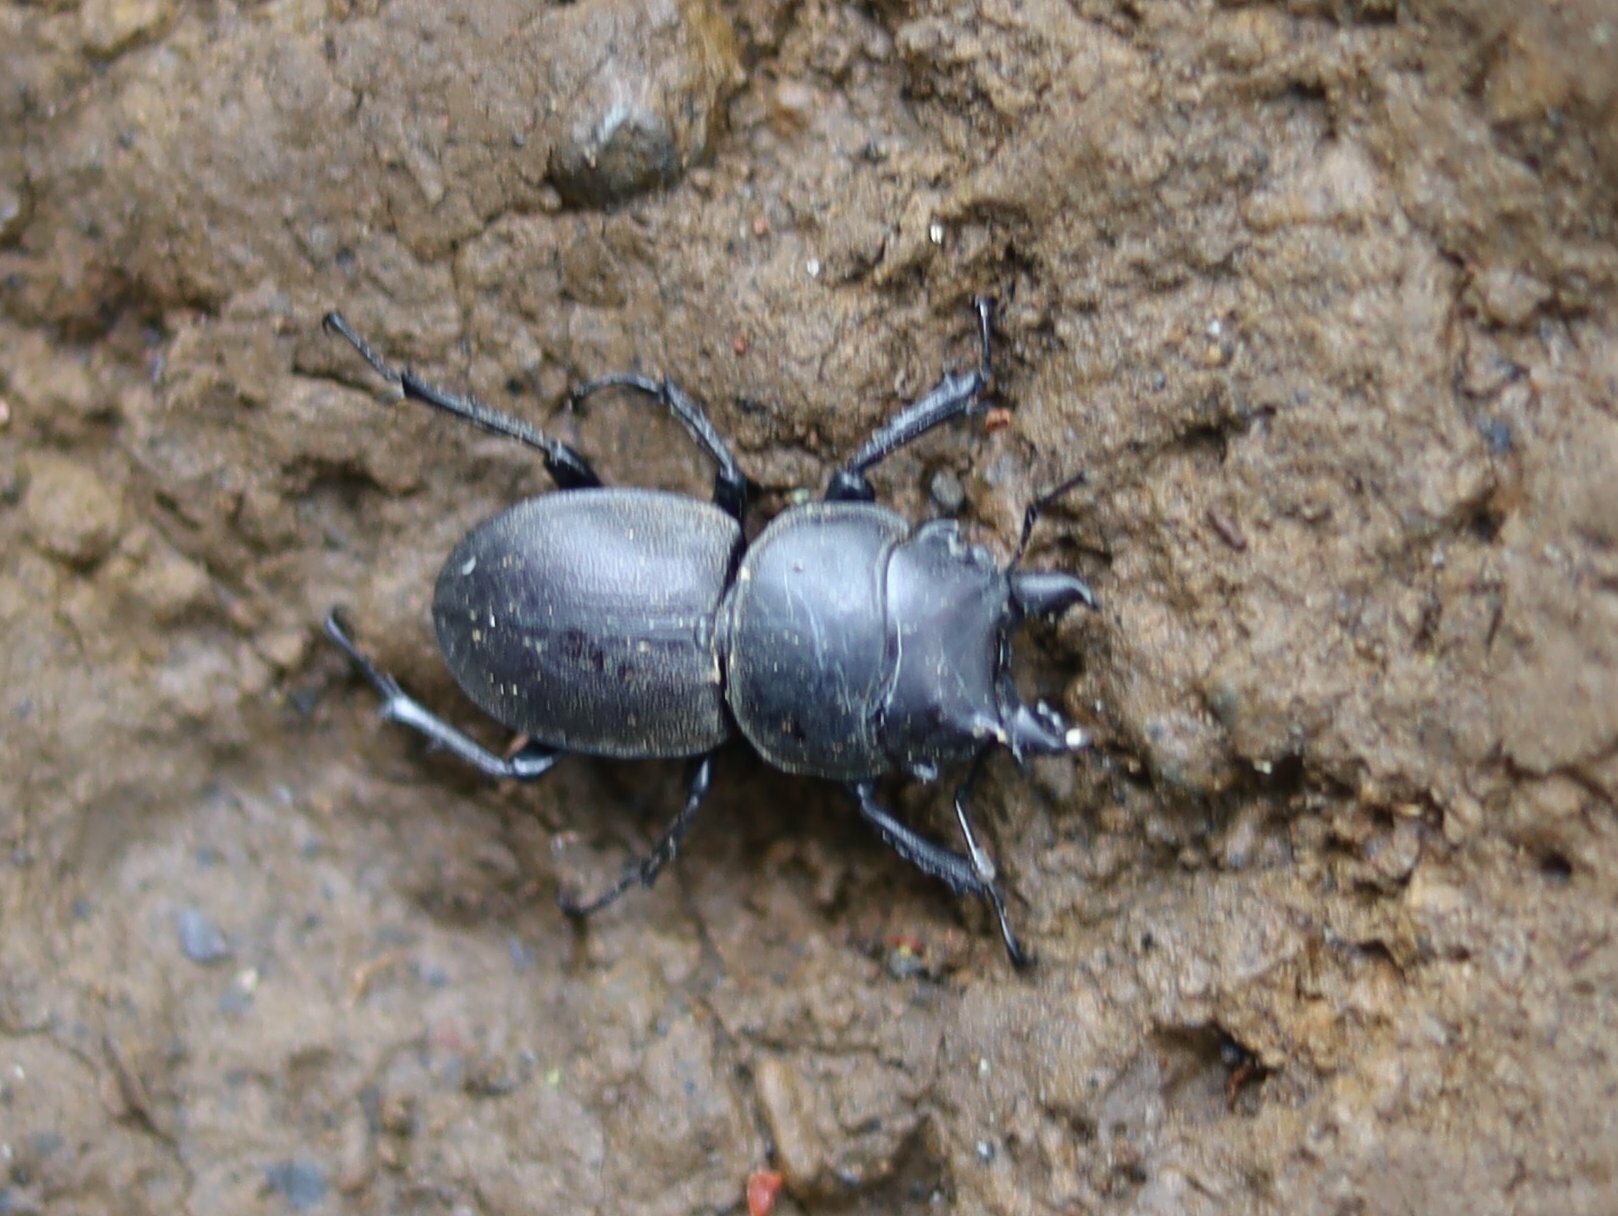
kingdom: Animalia
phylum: Arthropoda
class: Insecta
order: Coleoptera
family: Lucanidae
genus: Apterodorcus
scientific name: Apterodorcus bacchus
